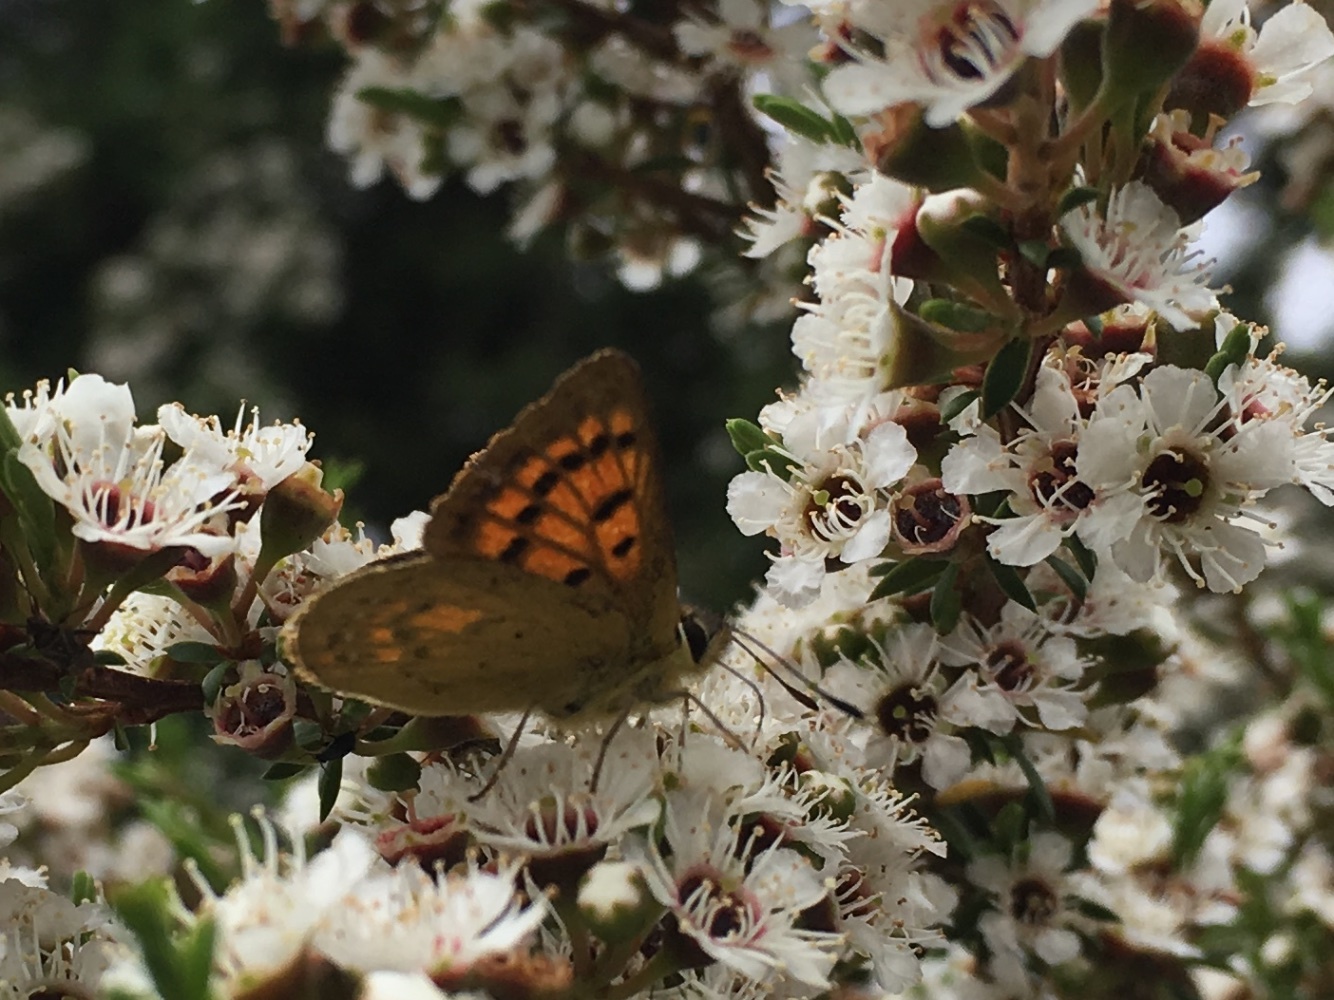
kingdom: Animalia
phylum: Arthropoda
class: Insecta
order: Lepidoptera
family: Lycaenidae
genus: Lycaena
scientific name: Lycaena
